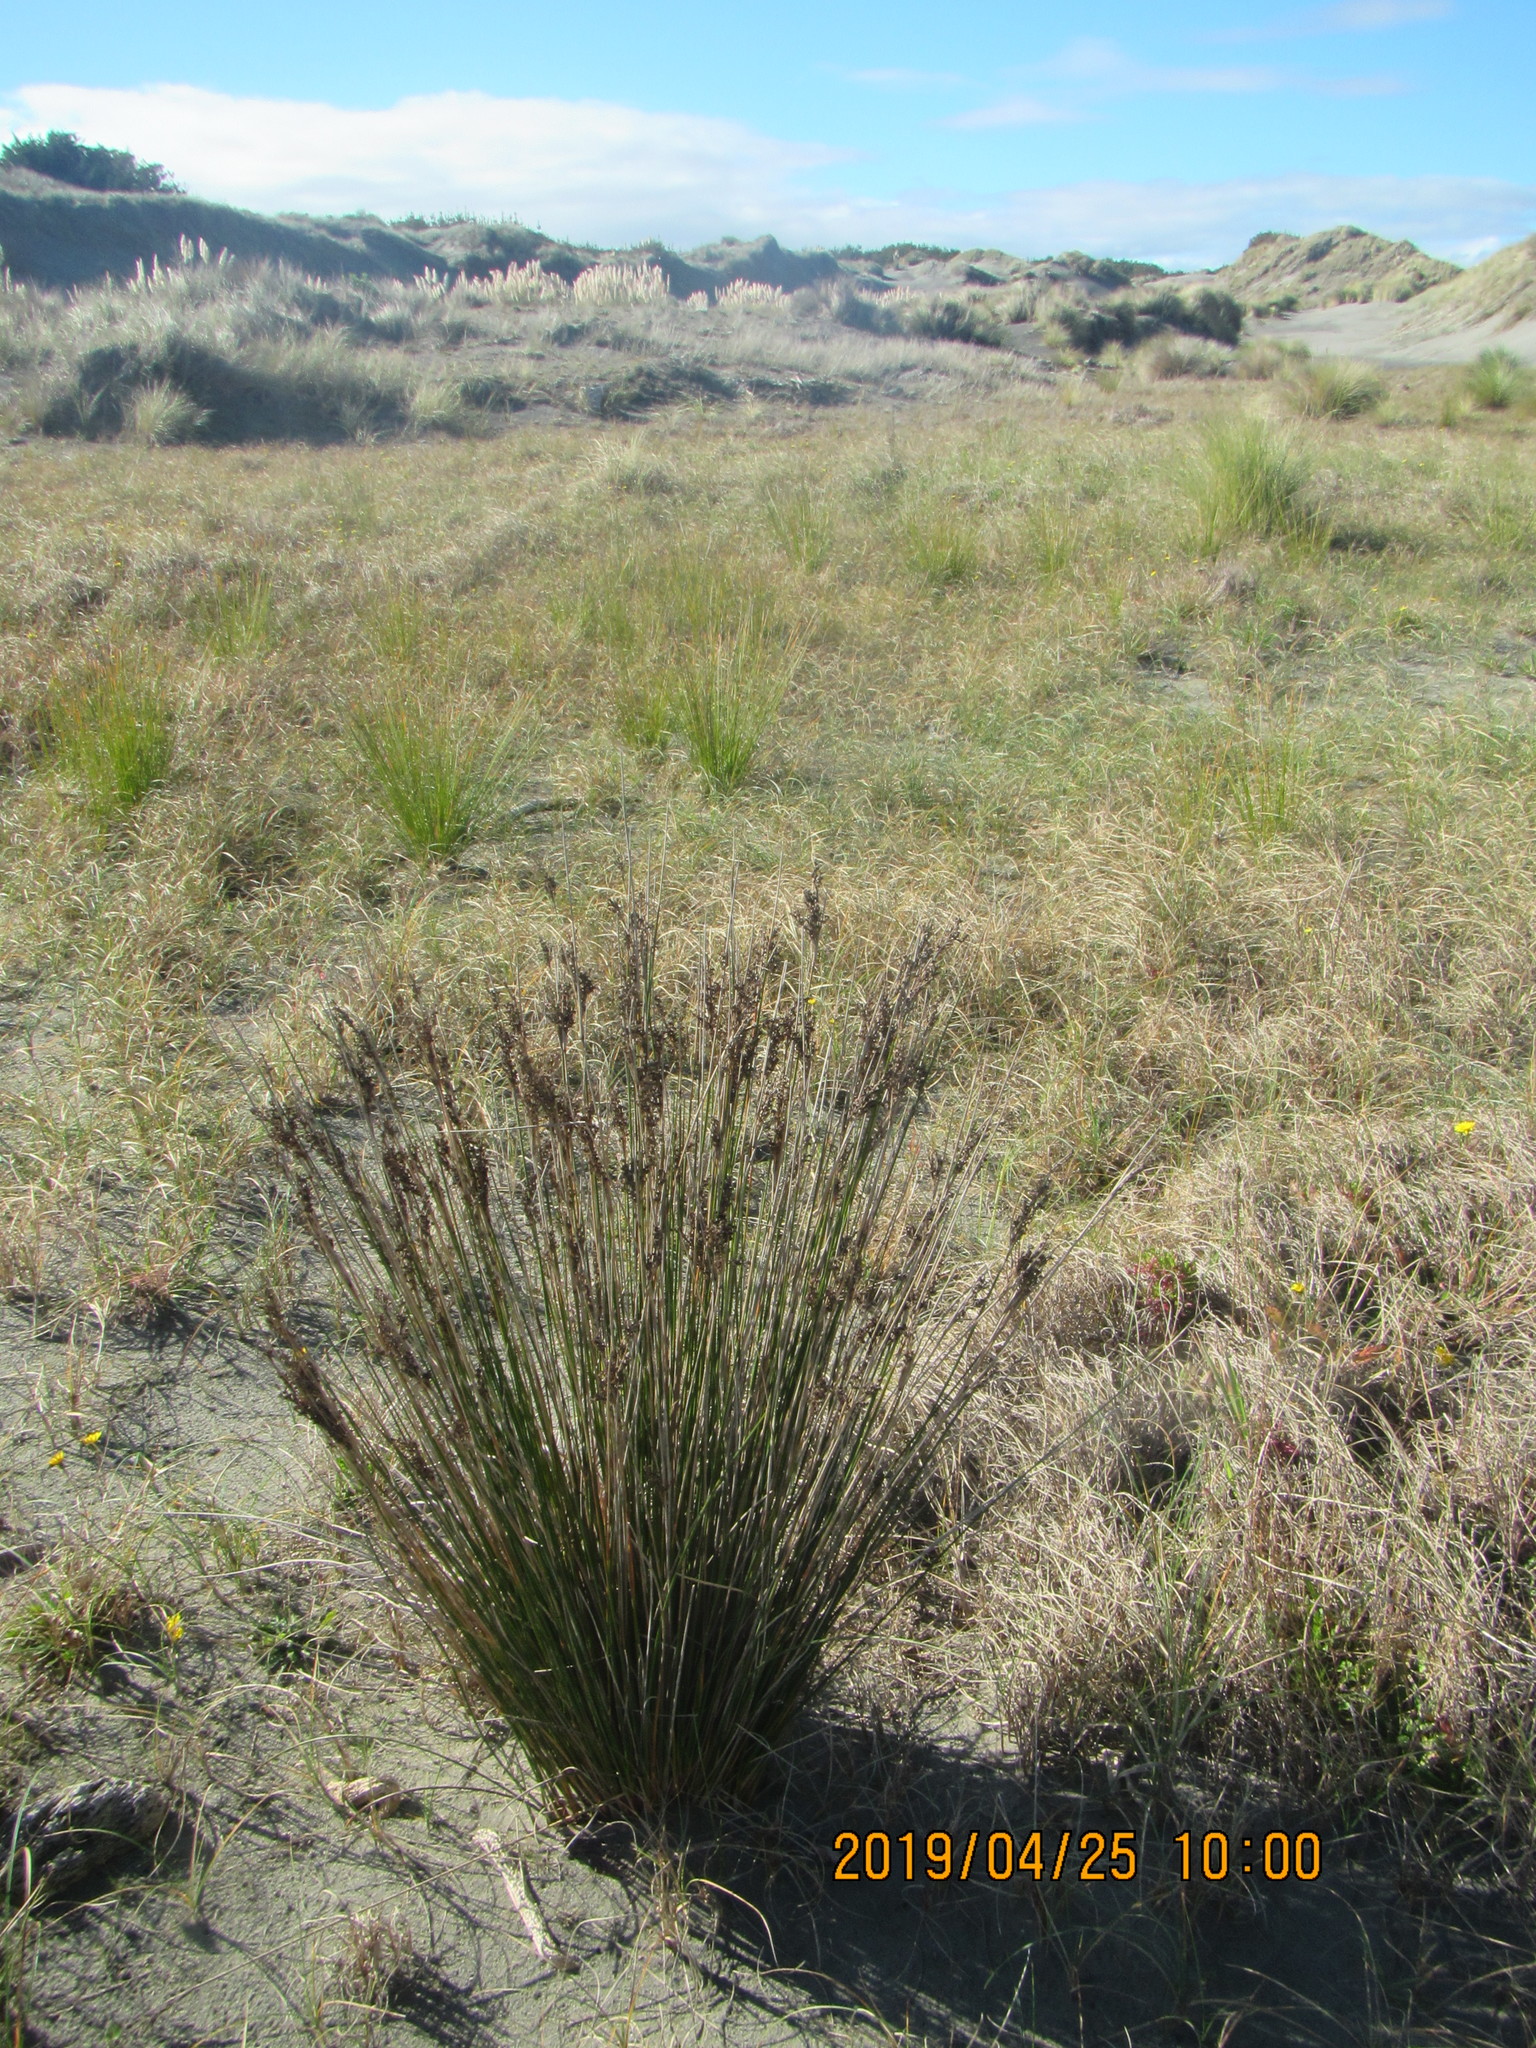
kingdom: Plantae
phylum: Tracheophyta
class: Liliopsida
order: Poales
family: Juncaceae
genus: Juncus
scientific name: Juncus kraussii
